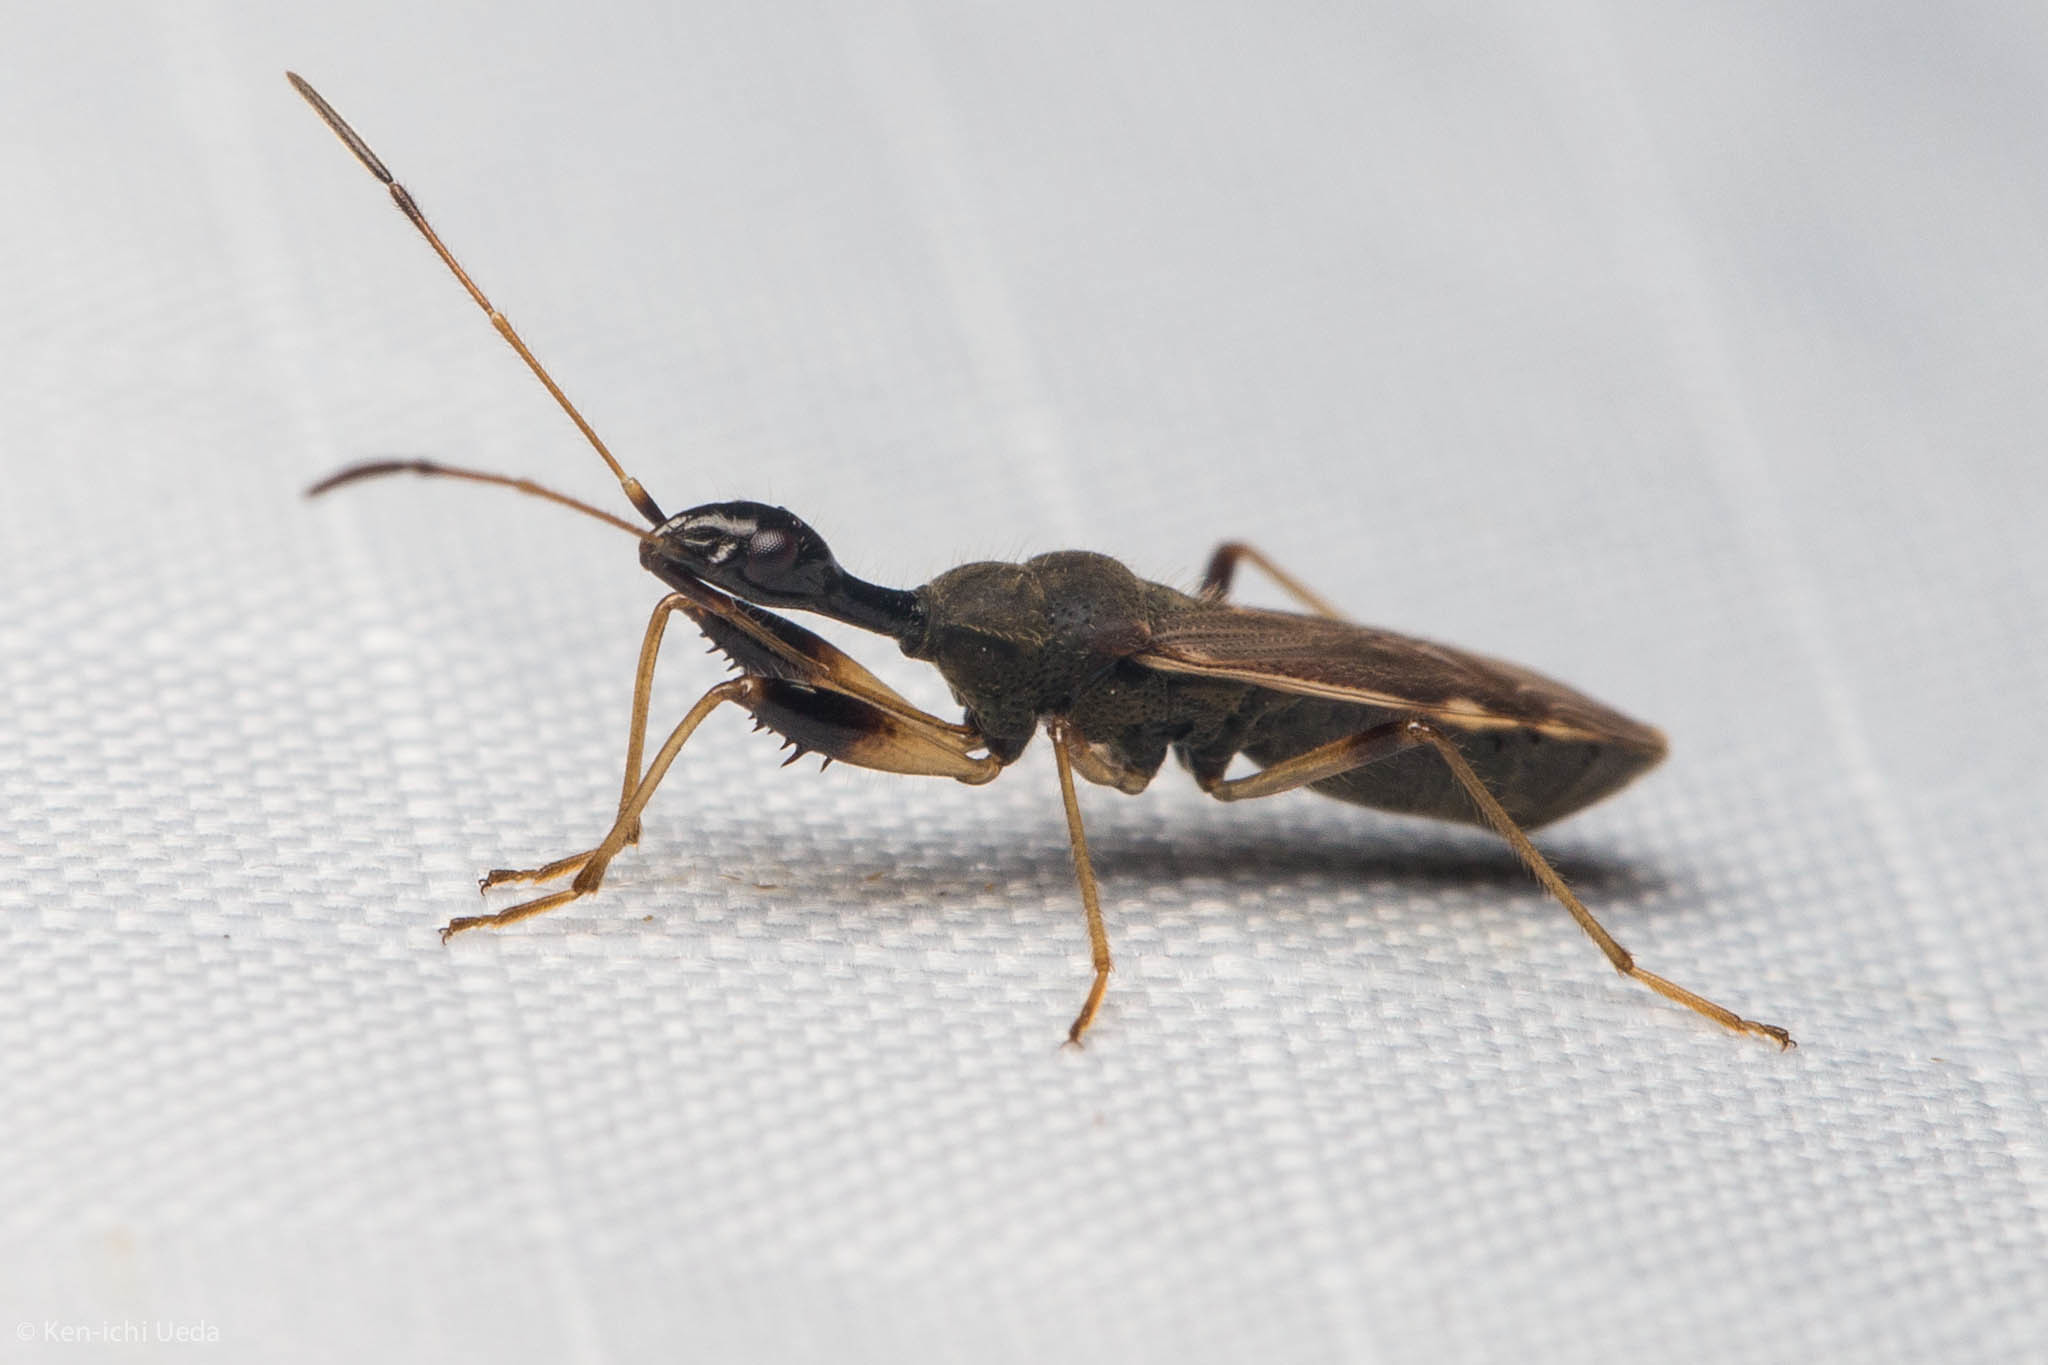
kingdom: Animalia
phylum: Arthropoda
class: Insecta
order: Hemiptera
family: Rhyparochromidae
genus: Myodocha
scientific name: Myodocha serripes
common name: Long-necked seed bug
